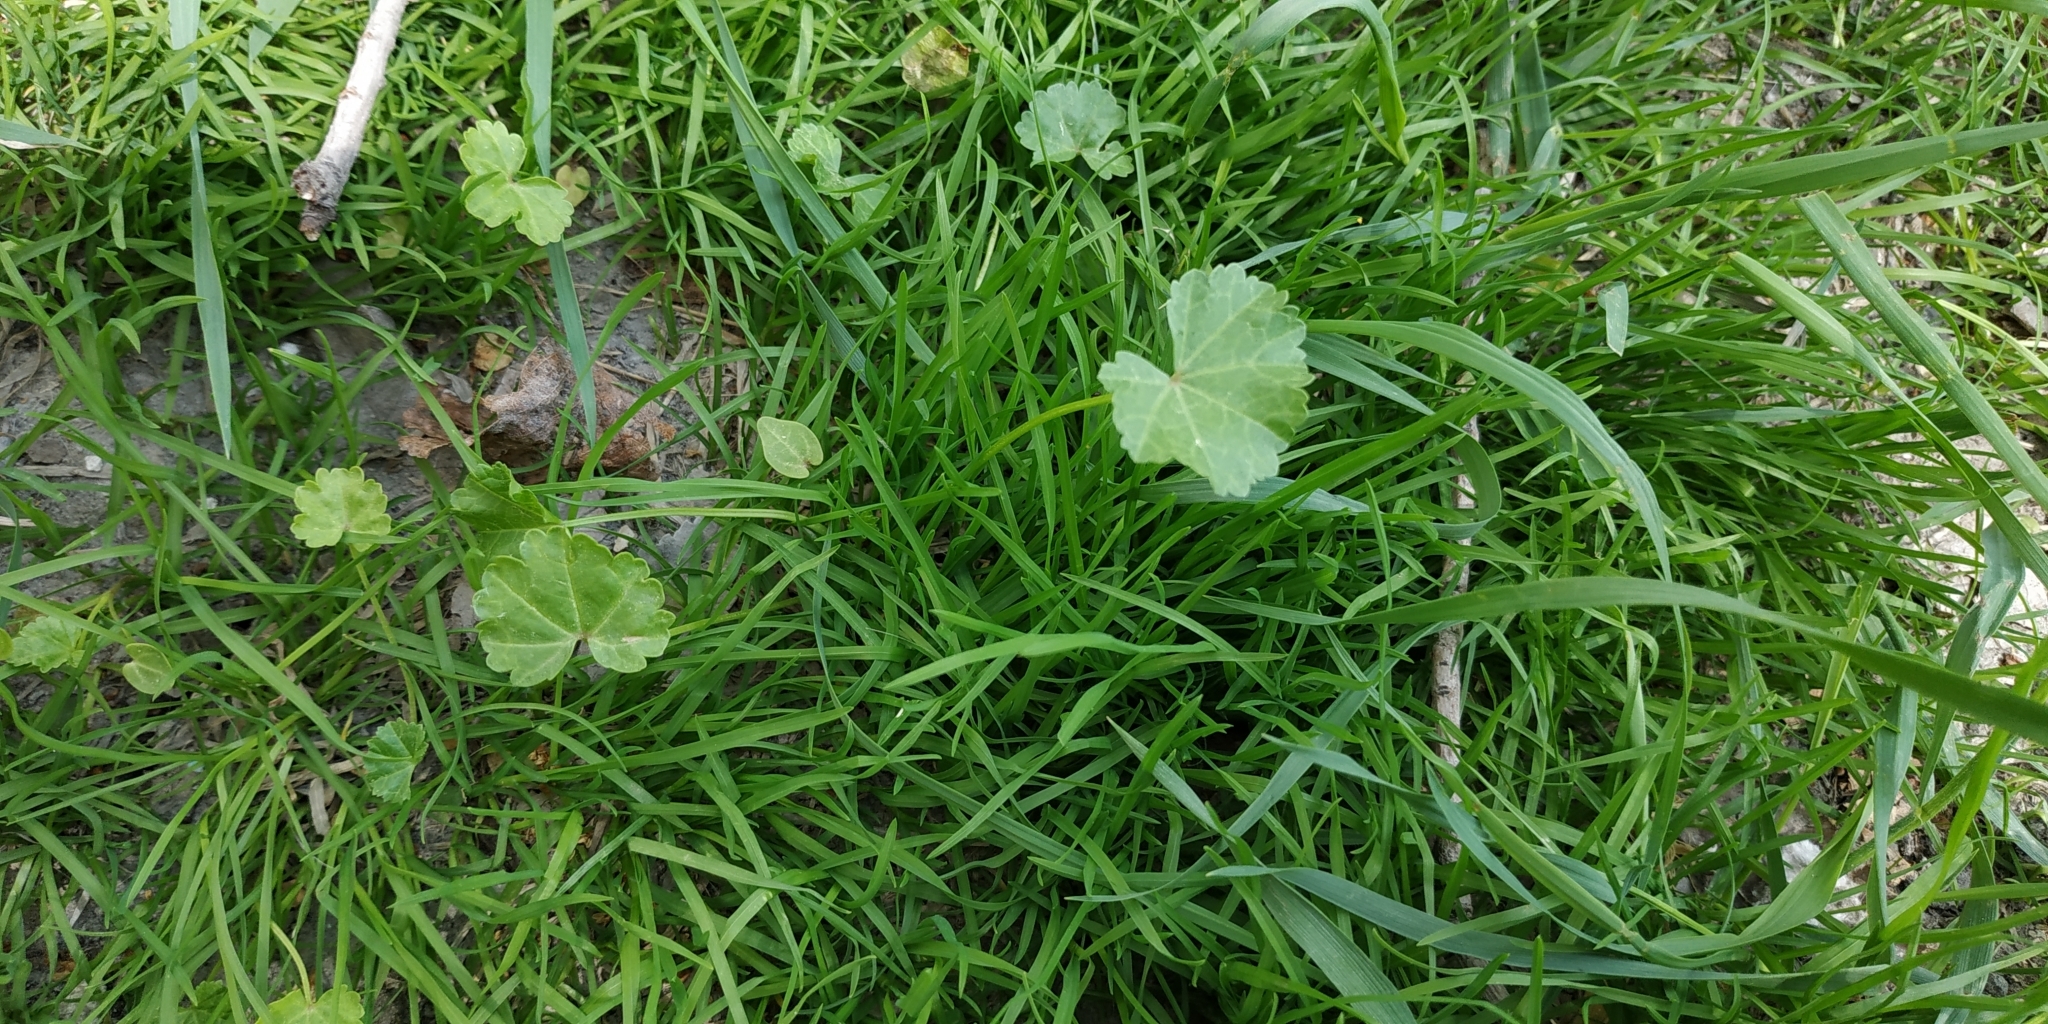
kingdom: Plantae
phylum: Tracheophyta
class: Magnoliopsida
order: Malvales
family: Malvaceae
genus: Malva
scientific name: Malva pusilla
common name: Small mallow
